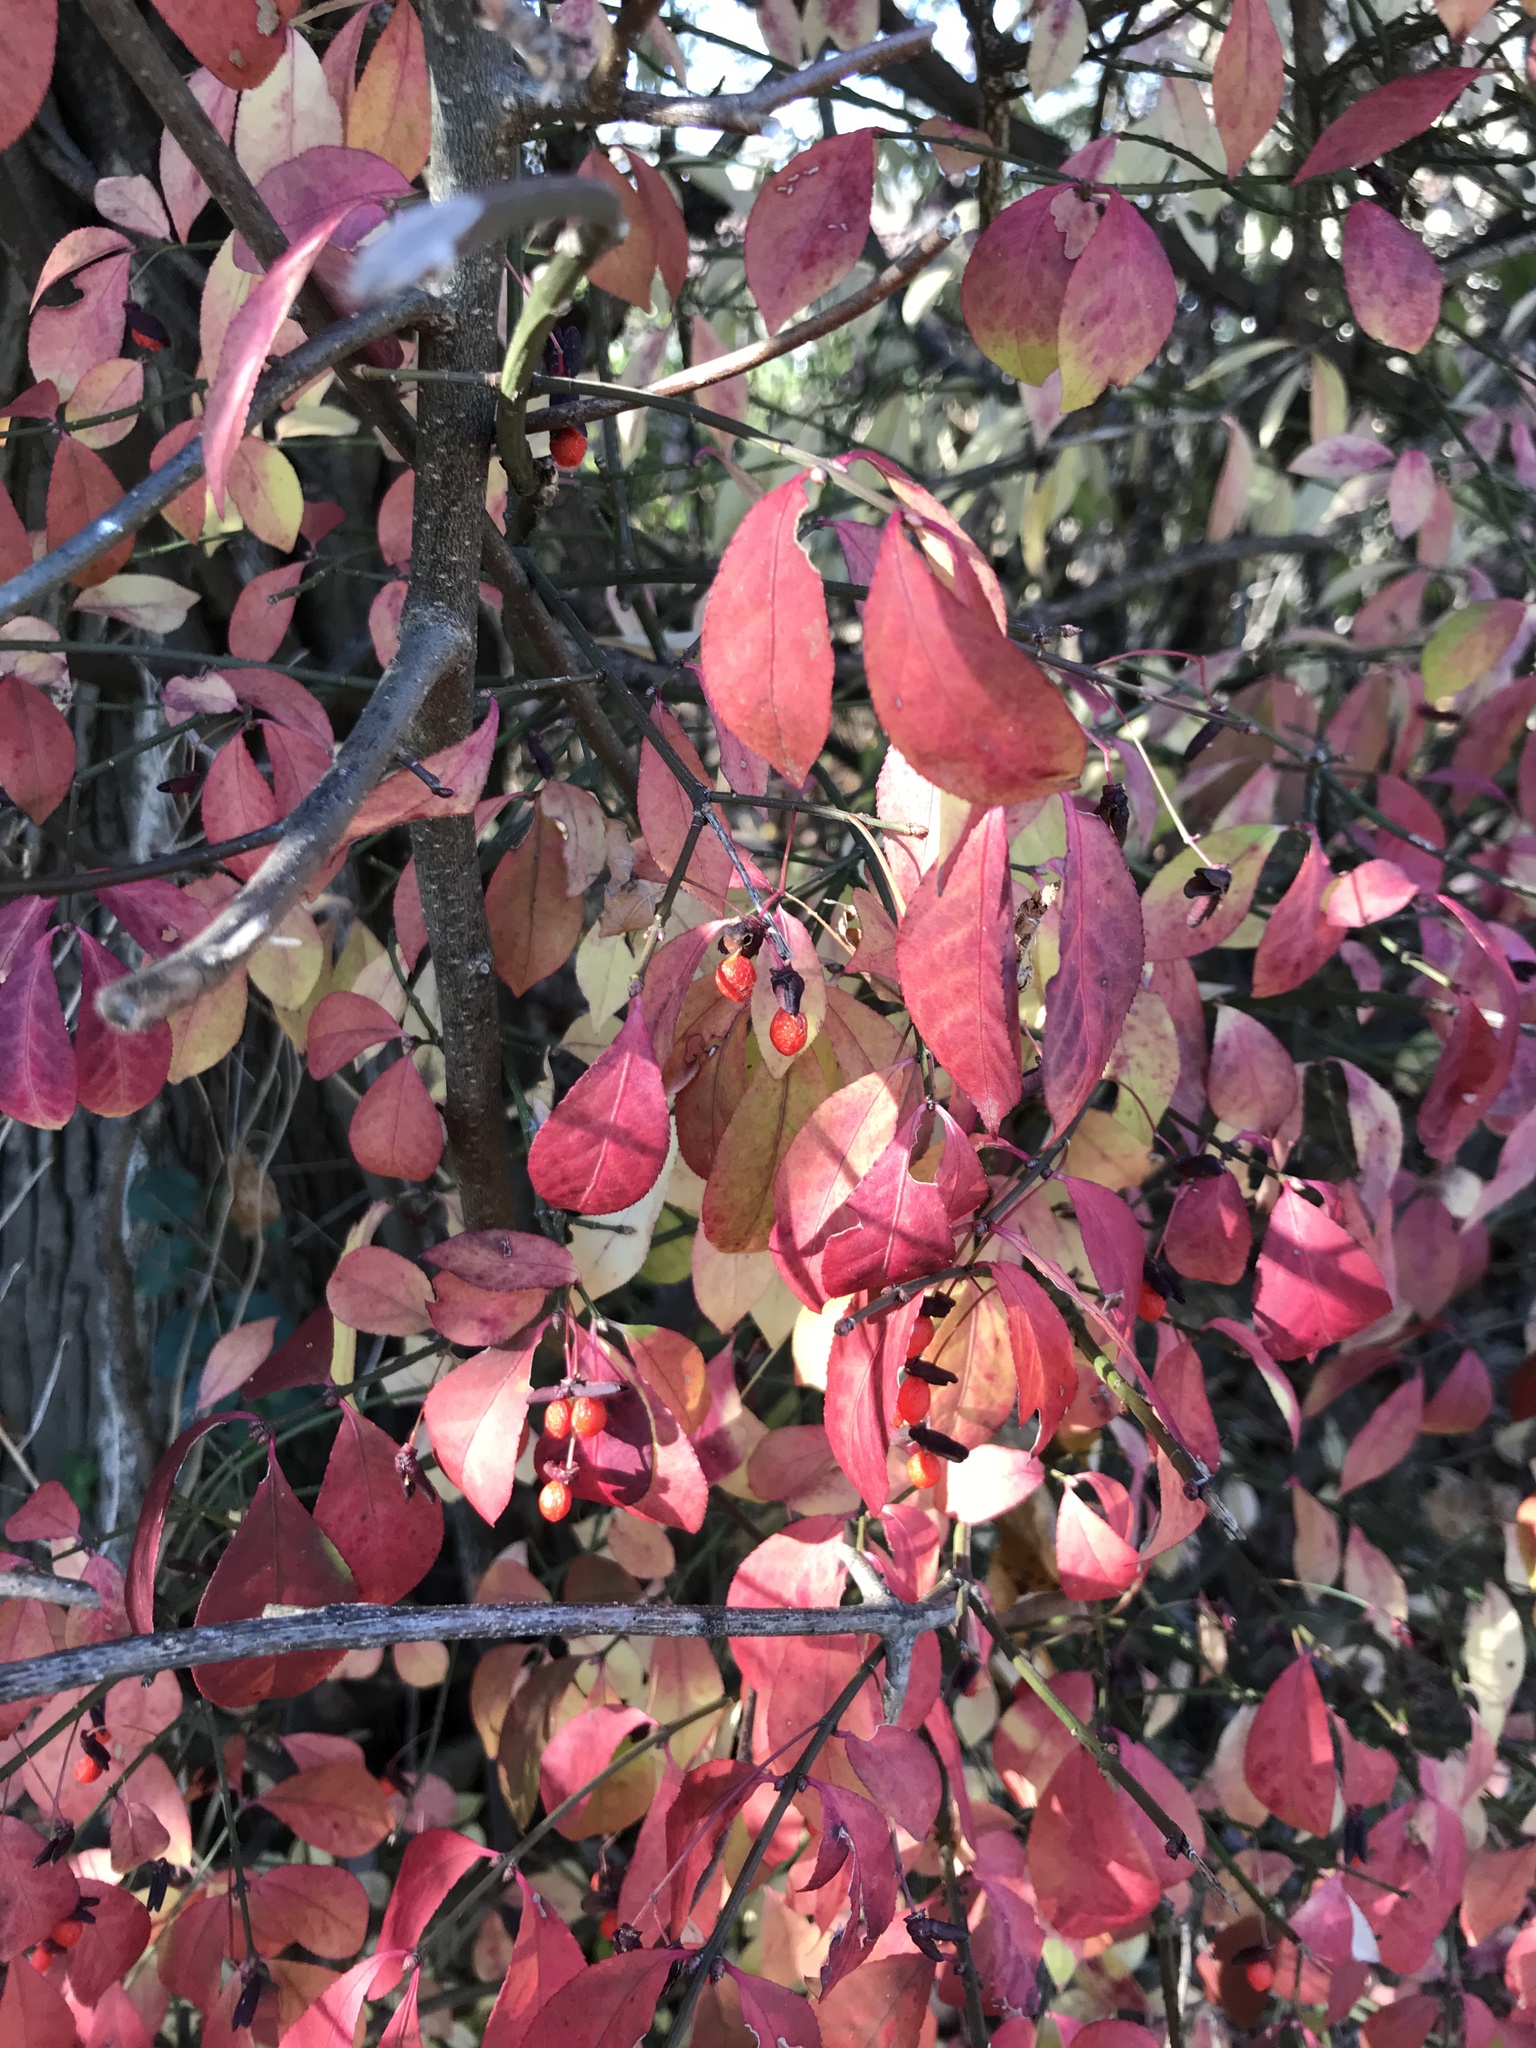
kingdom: Plantae
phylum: Tracheophyta
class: Magnoliopsida
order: Celastrales
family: Celastraceae
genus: Euonymus
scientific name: Euonymus alatus
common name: Winged euonymus
